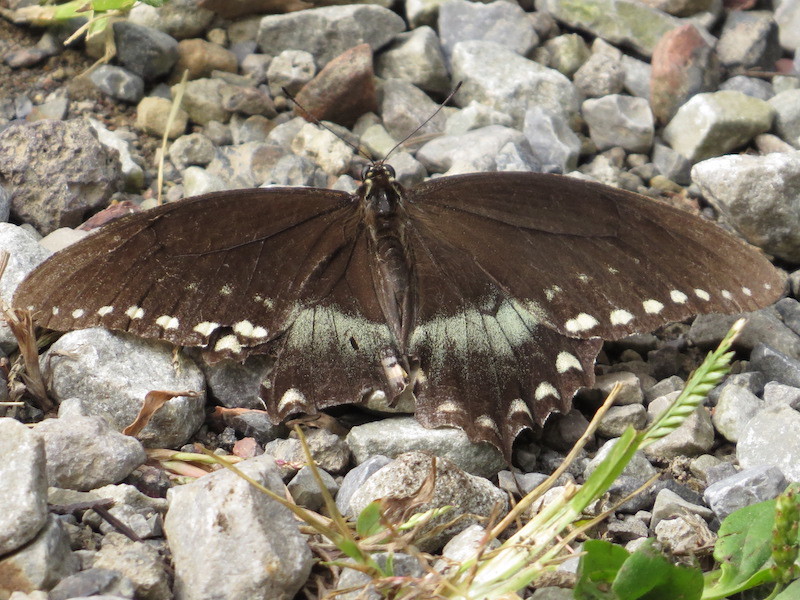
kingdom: Animalia
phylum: Arthropoda
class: Insecta
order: Lepidoptera
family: Papilionidae
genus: Papilio
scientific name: Papilio troilus
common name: Spicebush swallowtail
